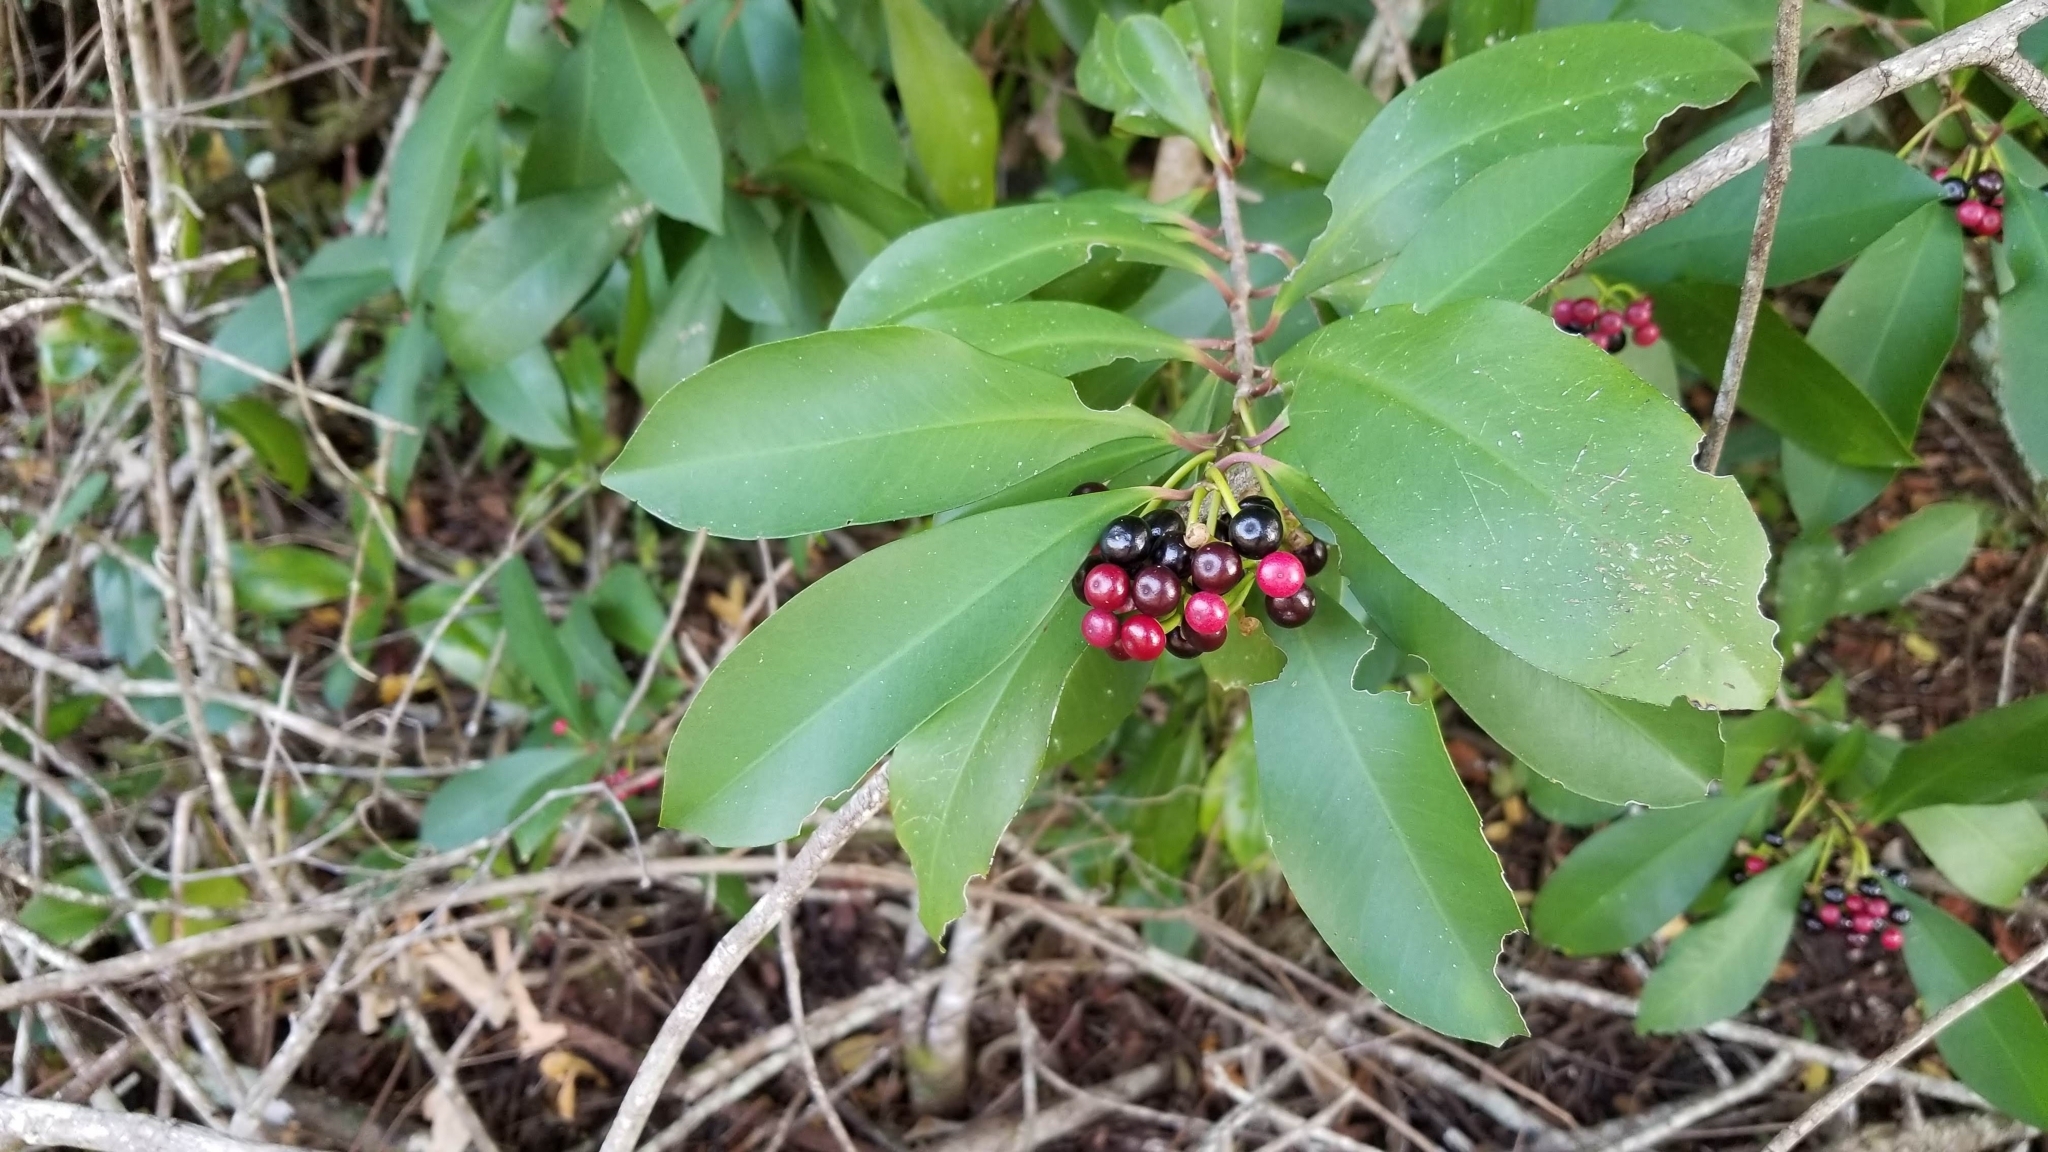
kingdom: Plantae
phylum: Tracheophyta
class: Magnoliopsida
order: Ericales
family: Primulaceae
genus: Ardisia
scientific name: Ardisia elliptica
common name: Shoebutton
